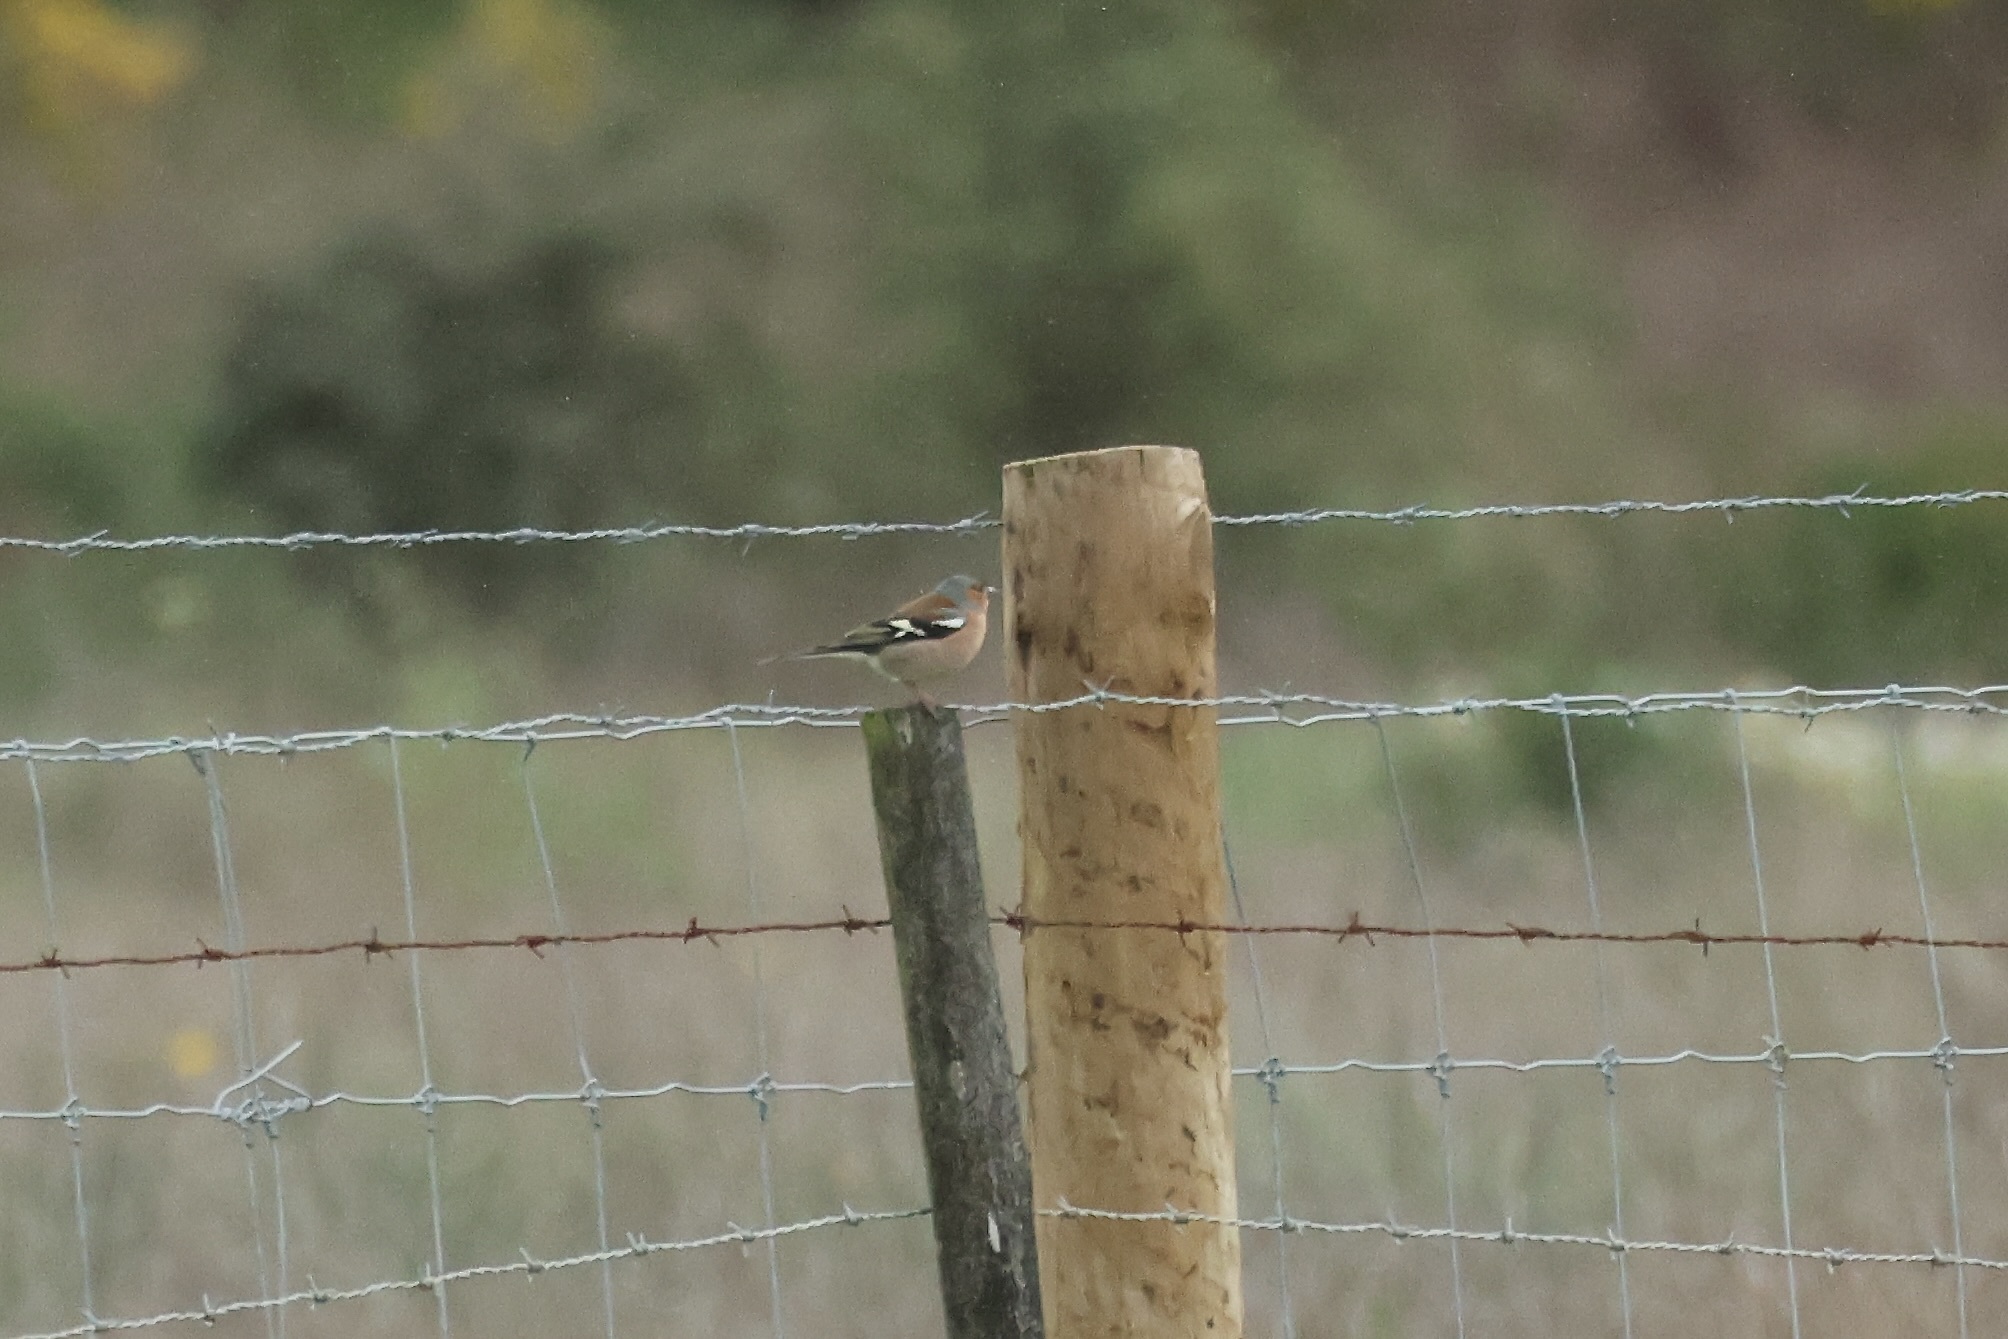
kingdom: Animalia
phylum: Chordata
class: Aves
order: Passeriformes
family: Fringillidae
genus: Fringilla
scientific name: Fringilla coelebs
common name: Common chaffinch
